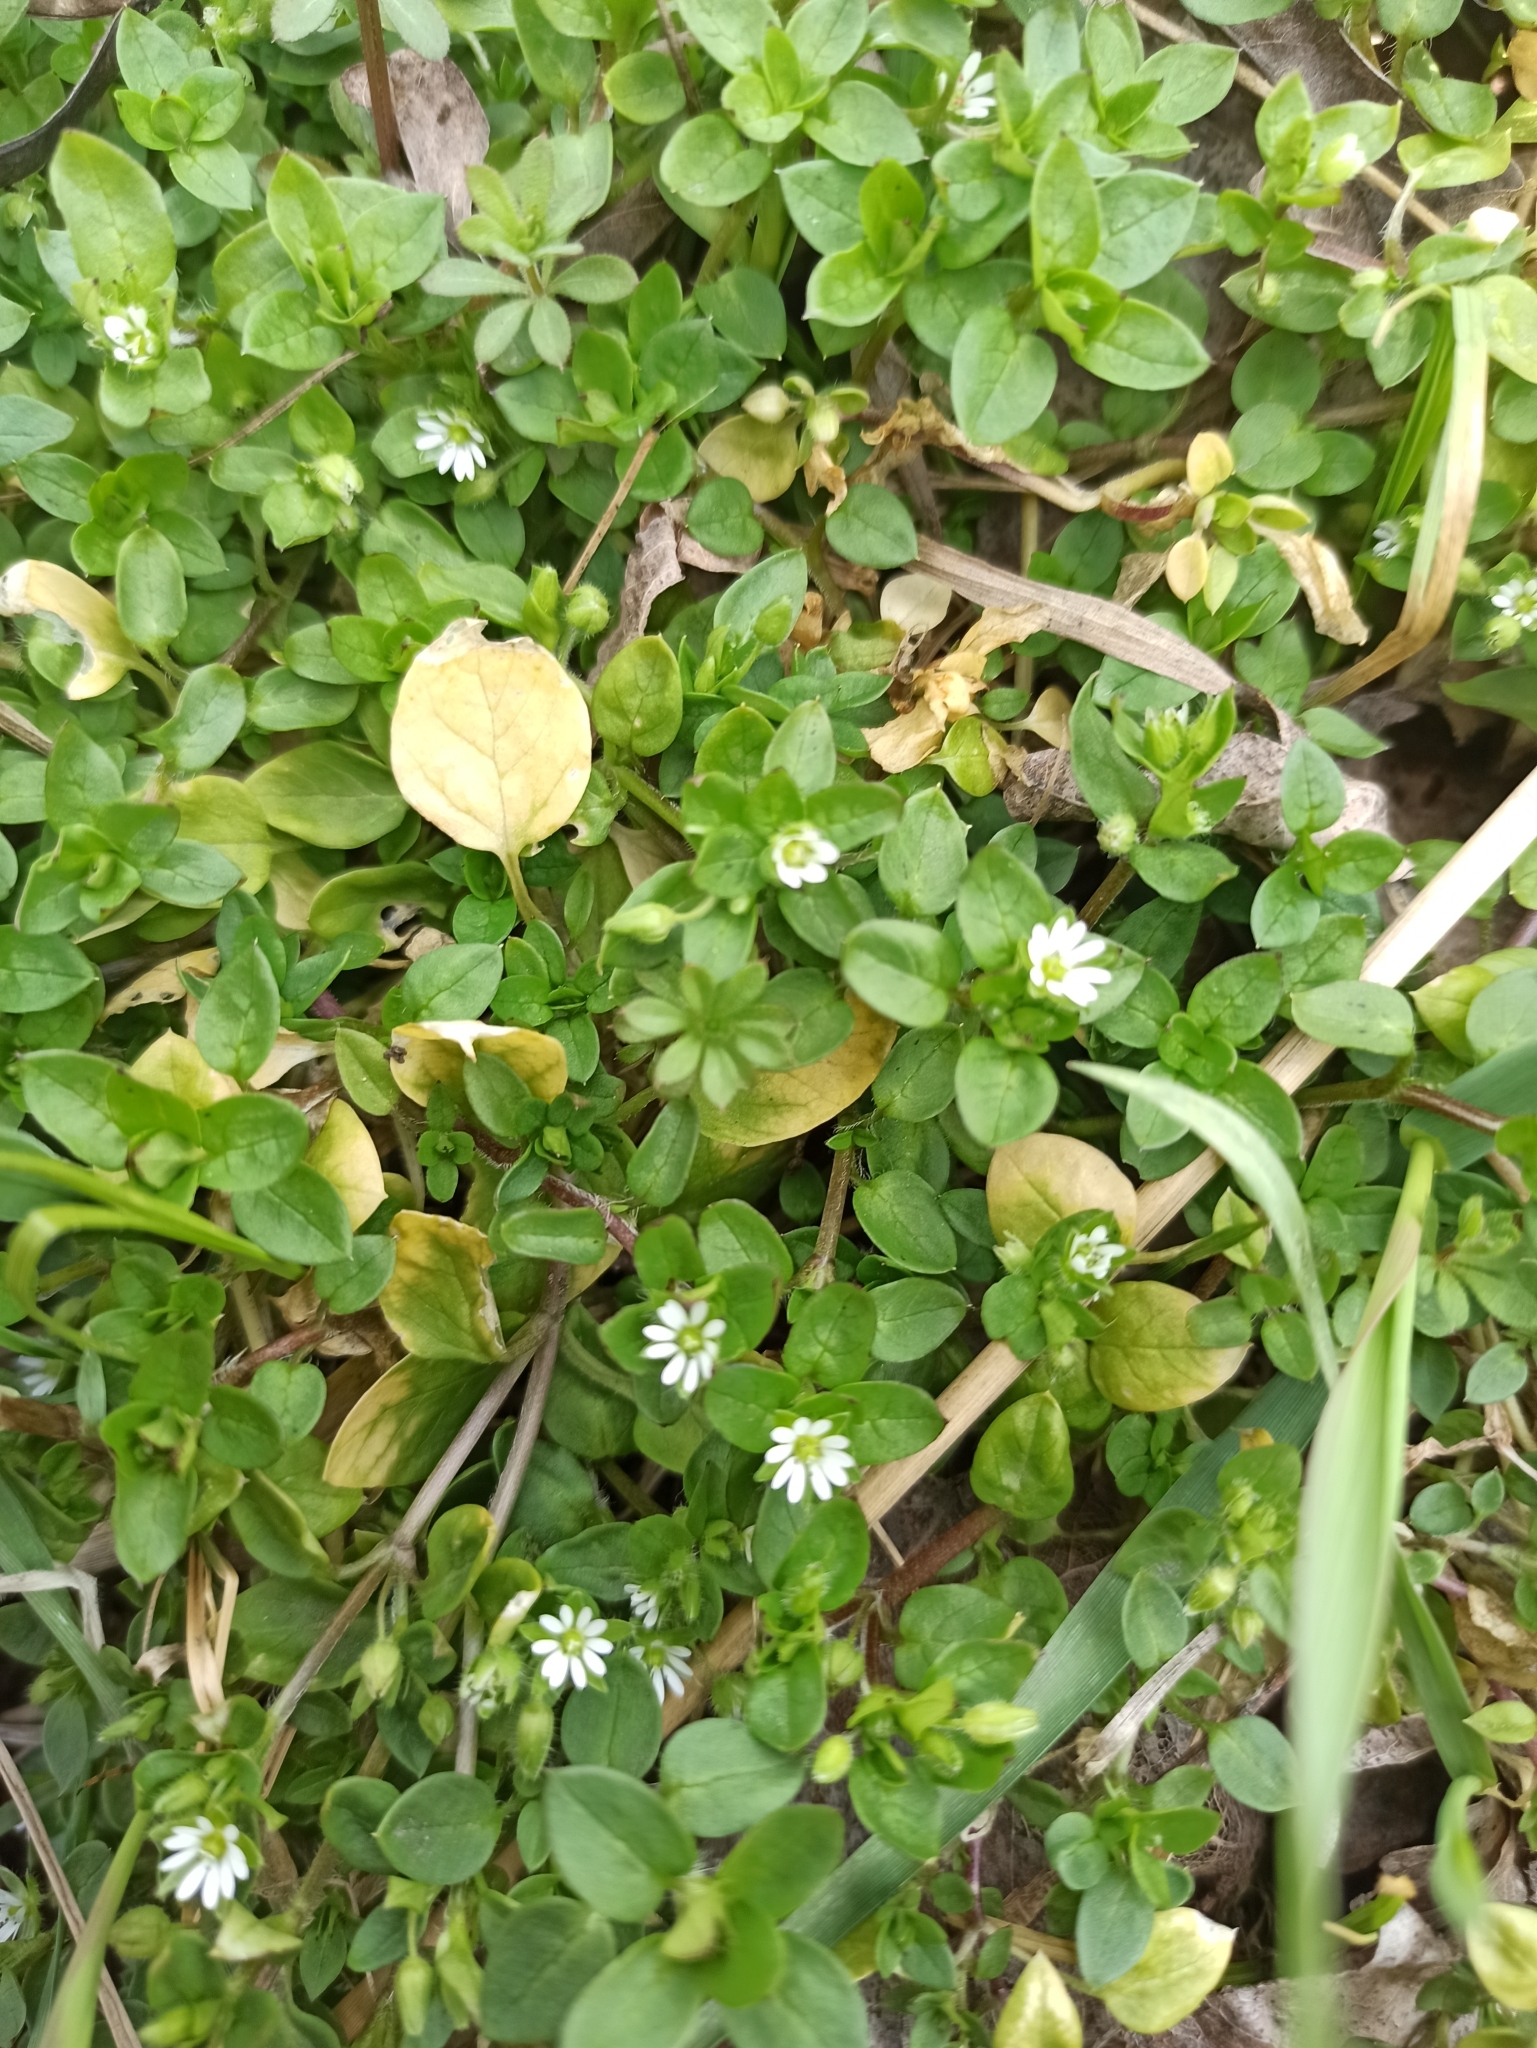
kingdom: Plantae
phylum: Tracheophyta
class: Magnoliopsida
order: Caryophyllales
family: Caryophyllaceae
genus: Stellaria
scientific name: Stellaria media
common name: Common chickweed
